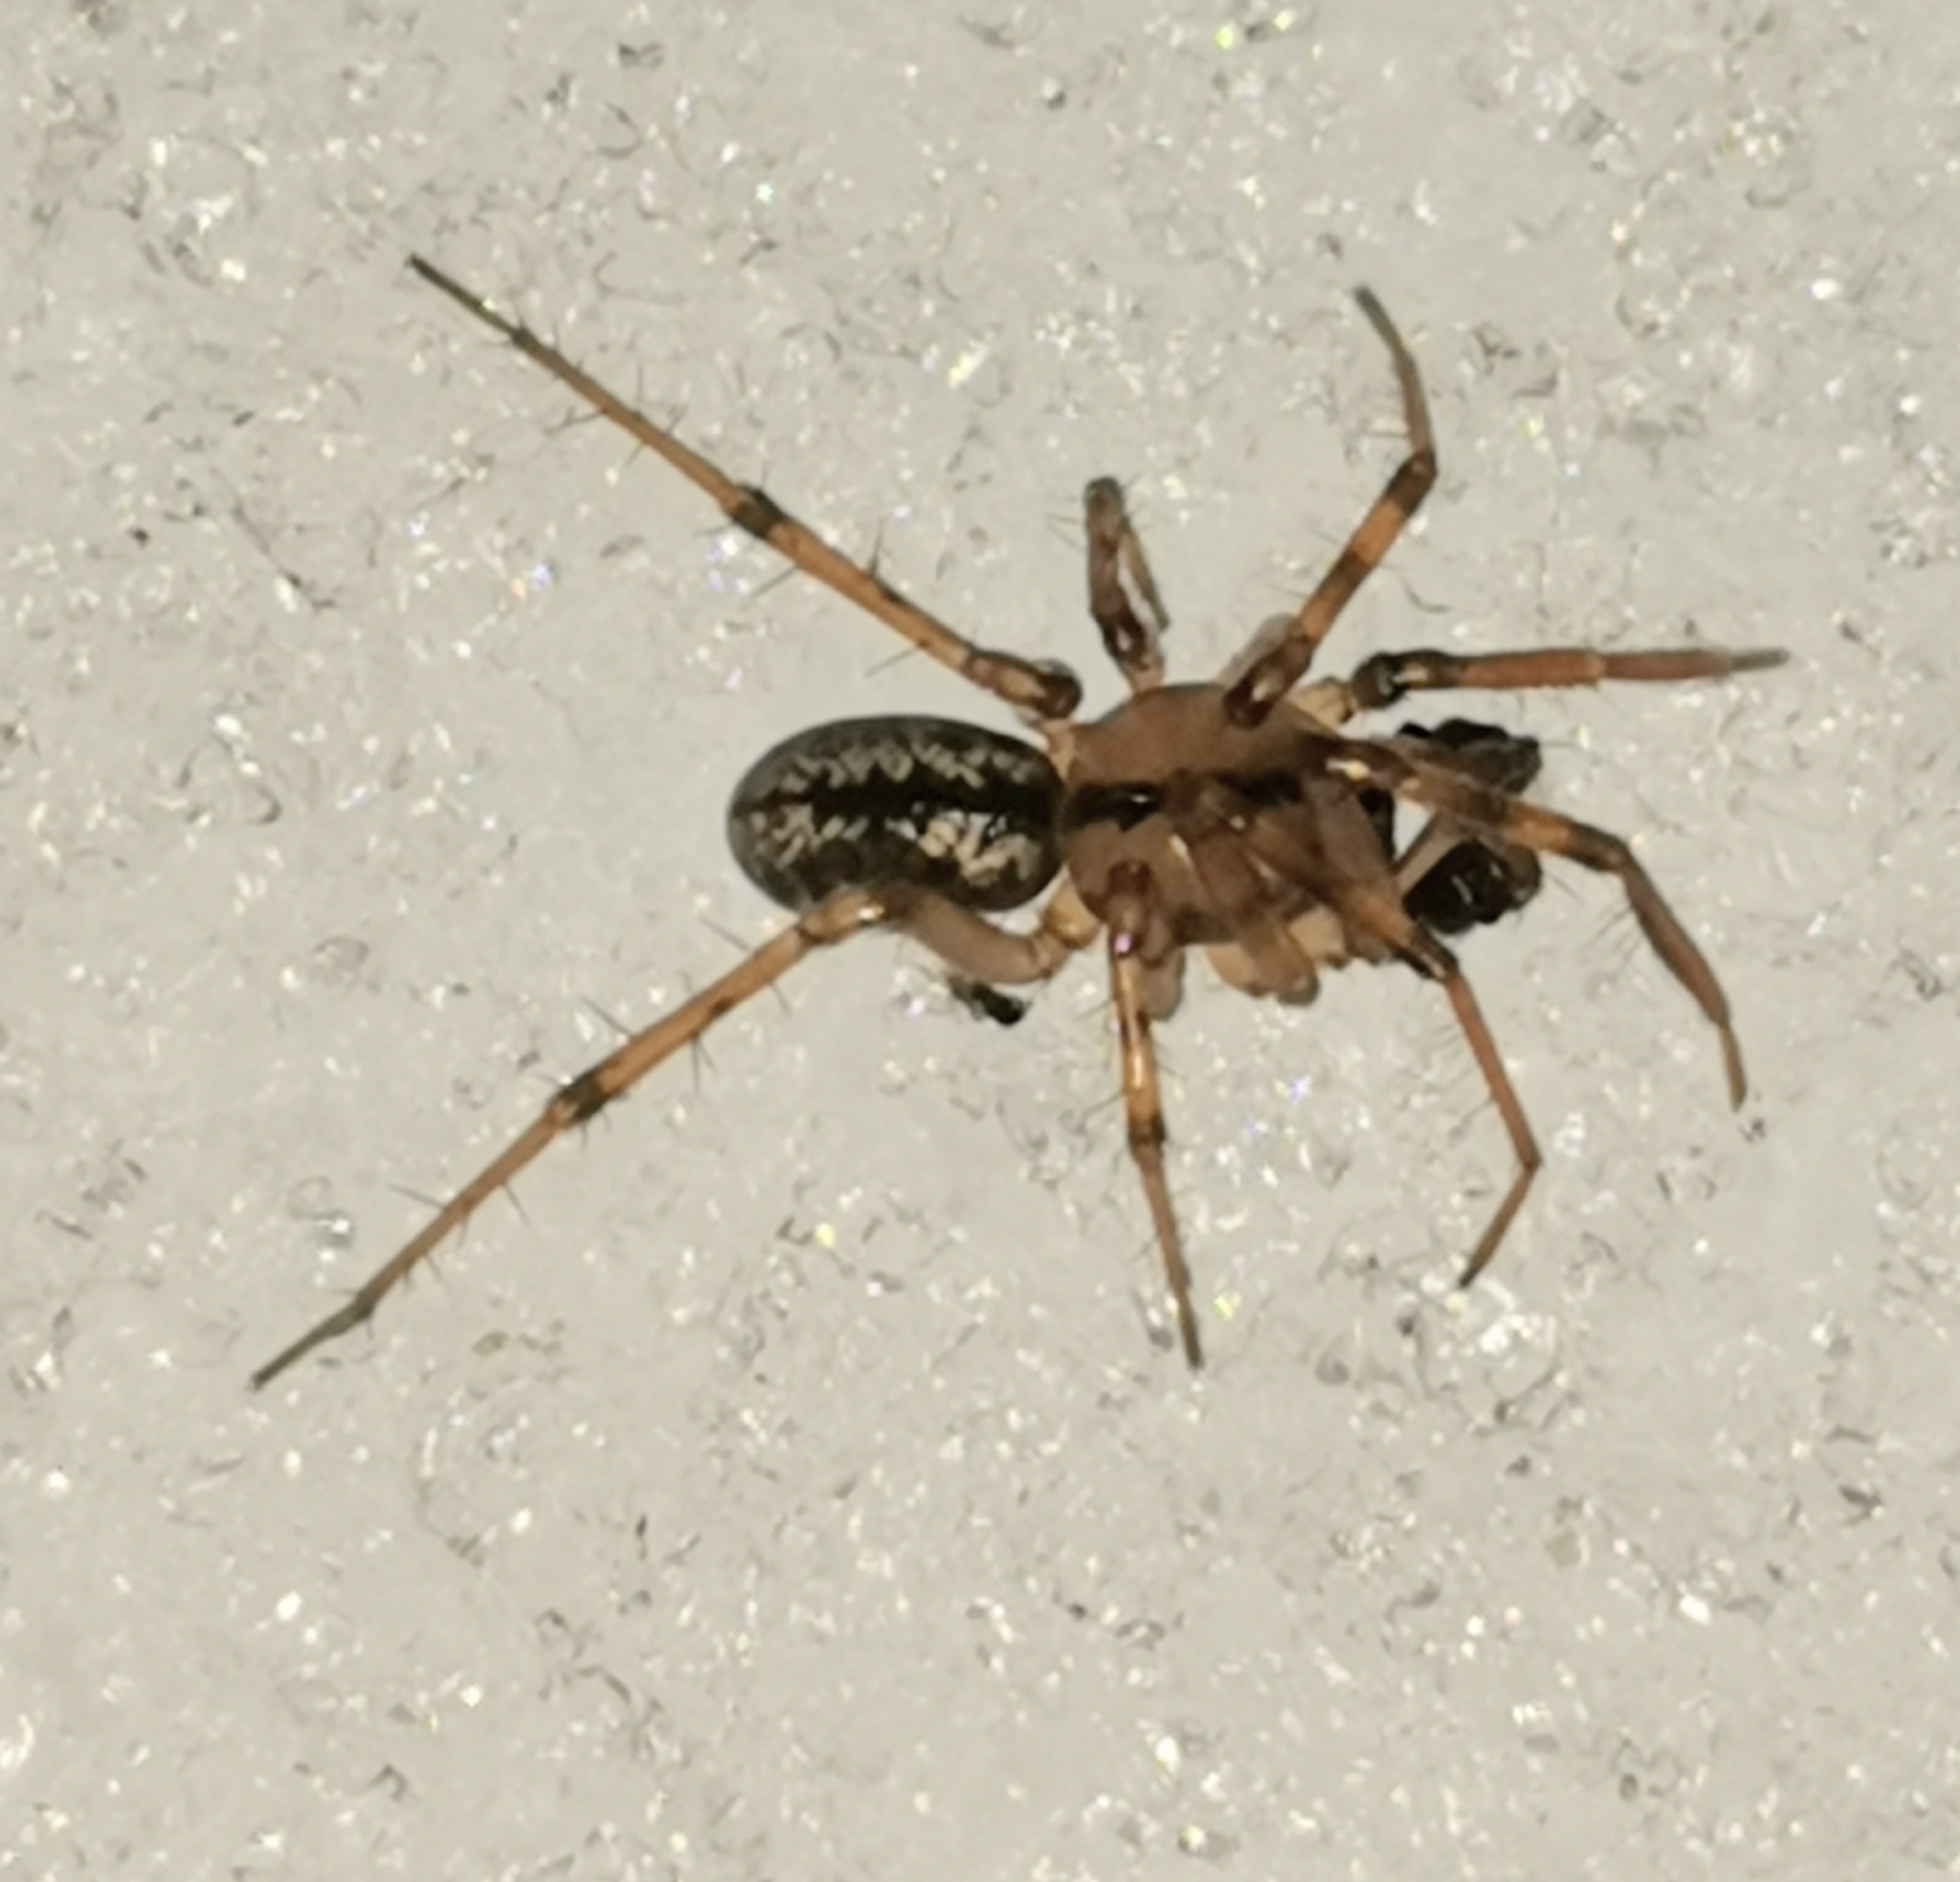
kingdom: Animalia
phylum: Arthropoda
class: Arachnida
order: Araneae
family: Linyphiidae
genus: Stemonyphantes
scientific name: Stemonyphantes lineatus
